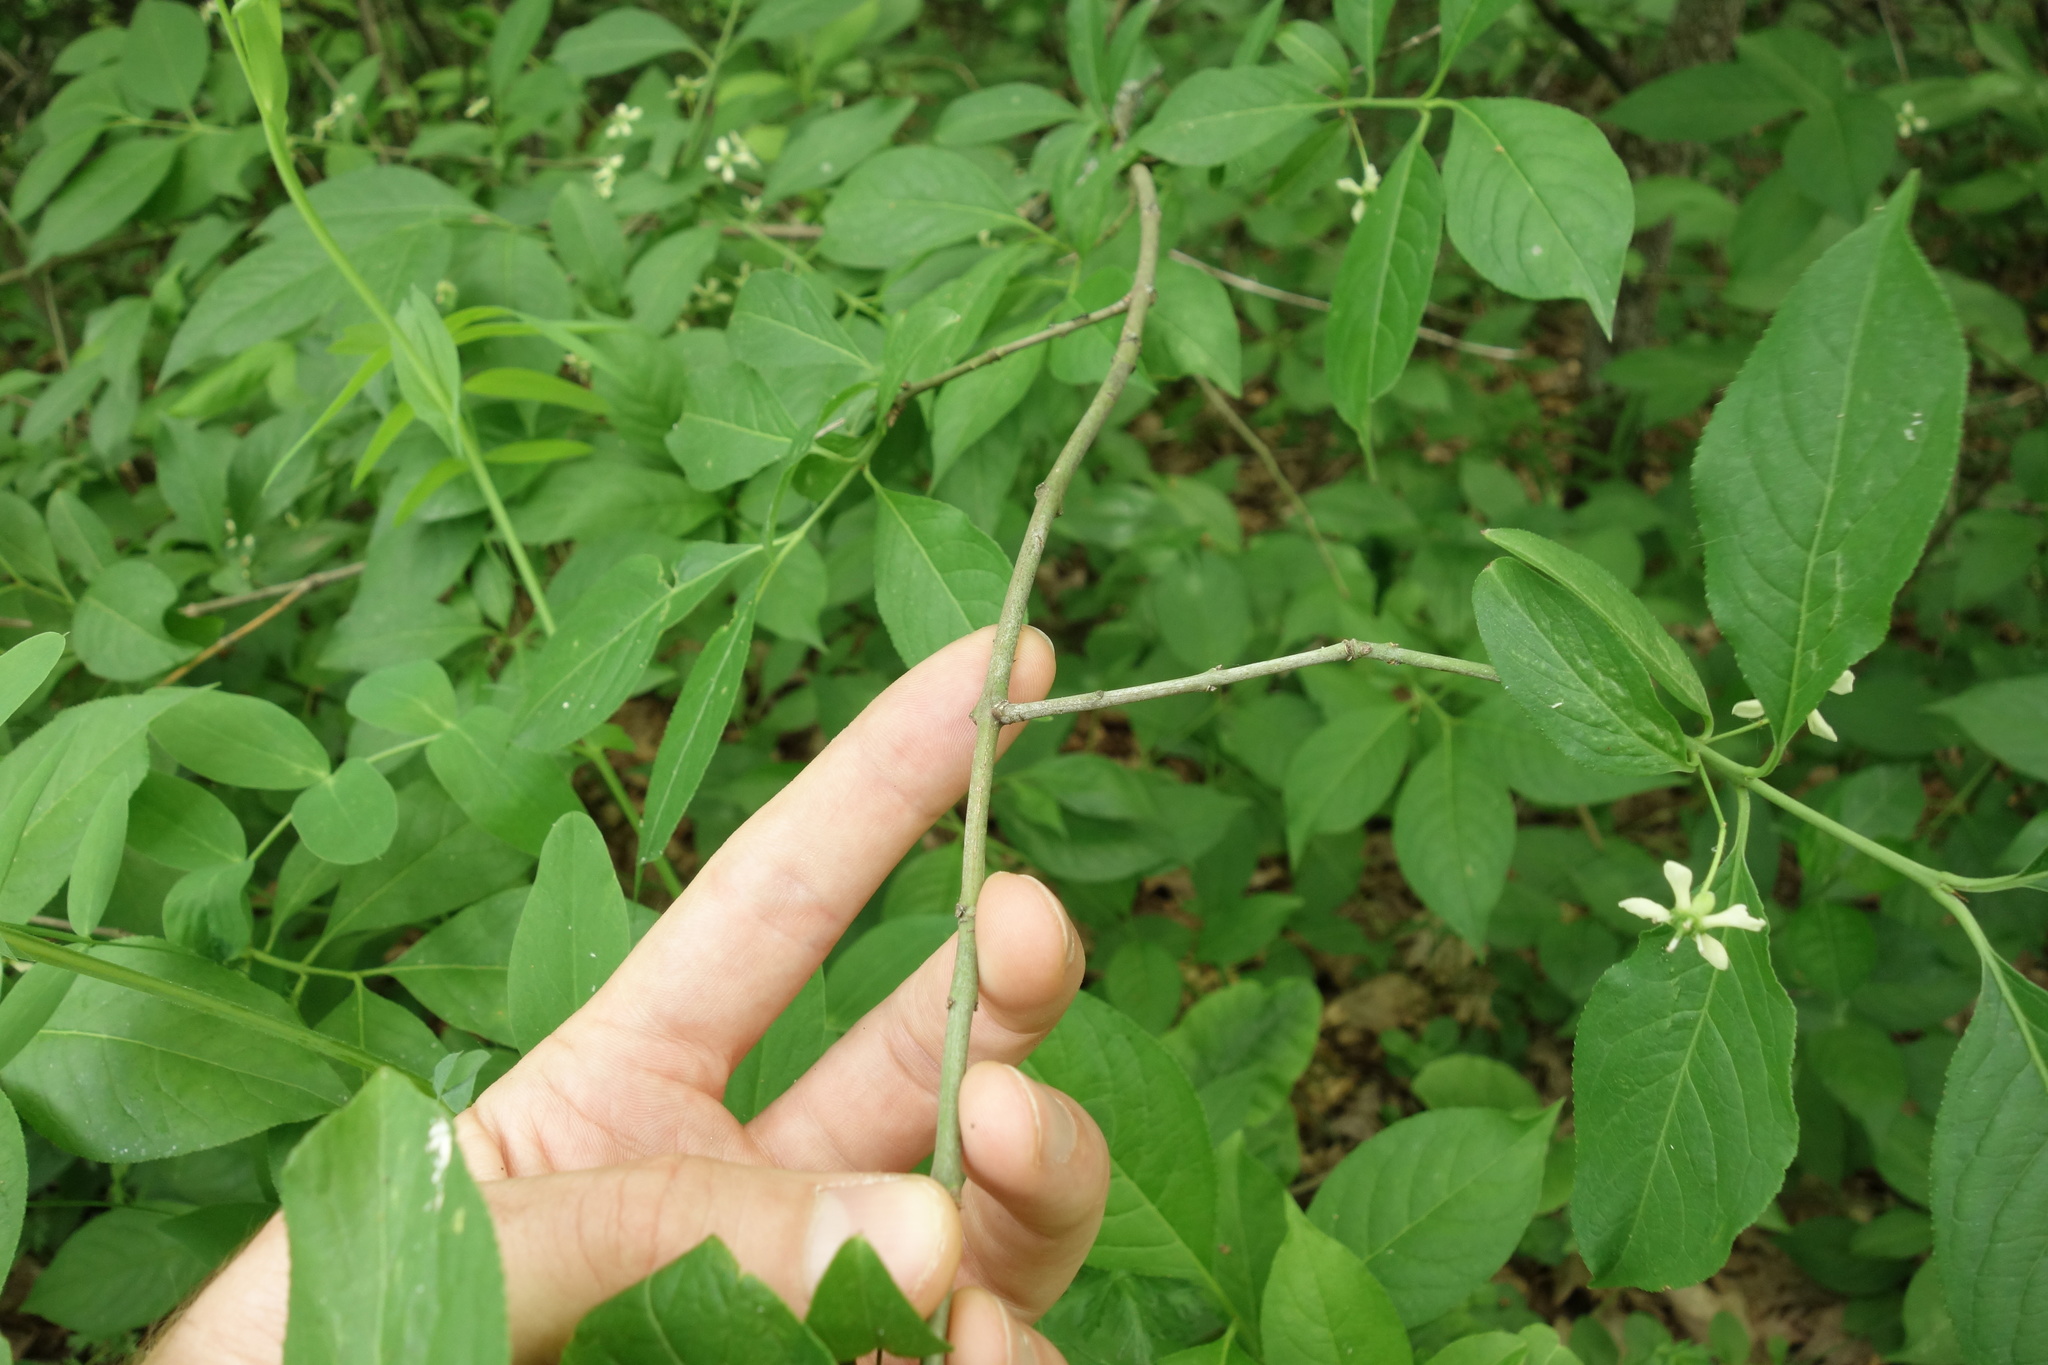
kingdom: Plantae
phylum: Tracheophyta
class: Magnoliopsida
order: Celastrales
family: Celastraceae
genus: Euonymus
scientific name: Euonymus europaeus
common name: Spindle
